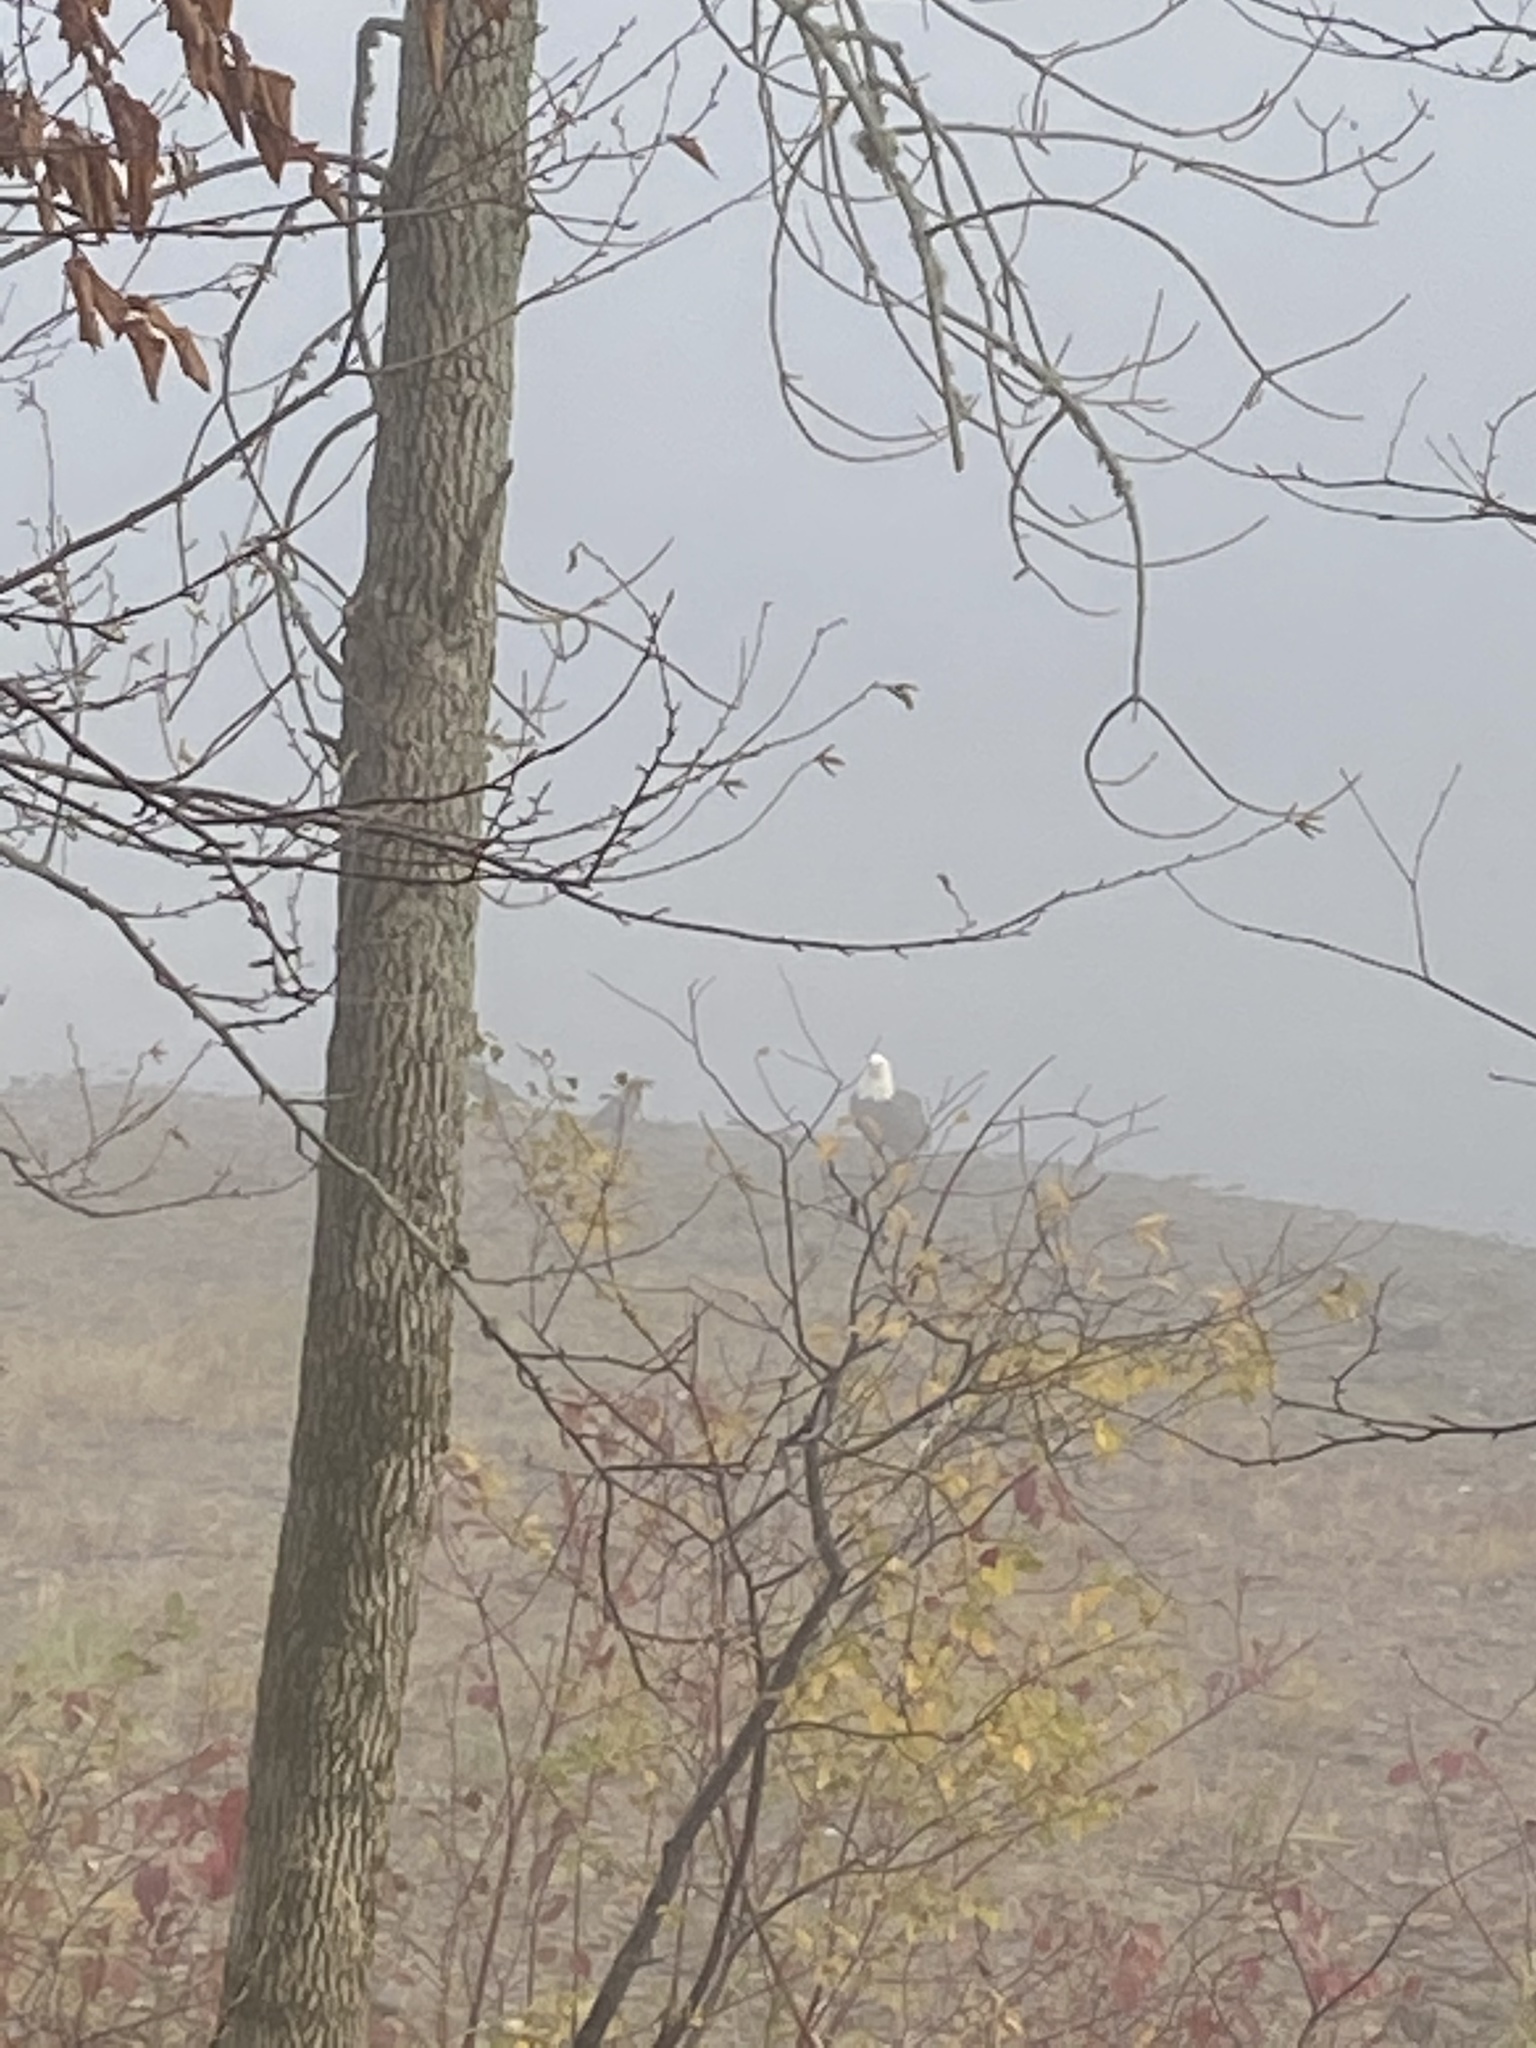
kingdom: Animalia
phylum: Chordata
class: Aves
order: Accipitriformes
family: Accipitridae
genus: Haliaeetus
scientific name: Haliaeetus leucocephalus
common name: Bald eagle
